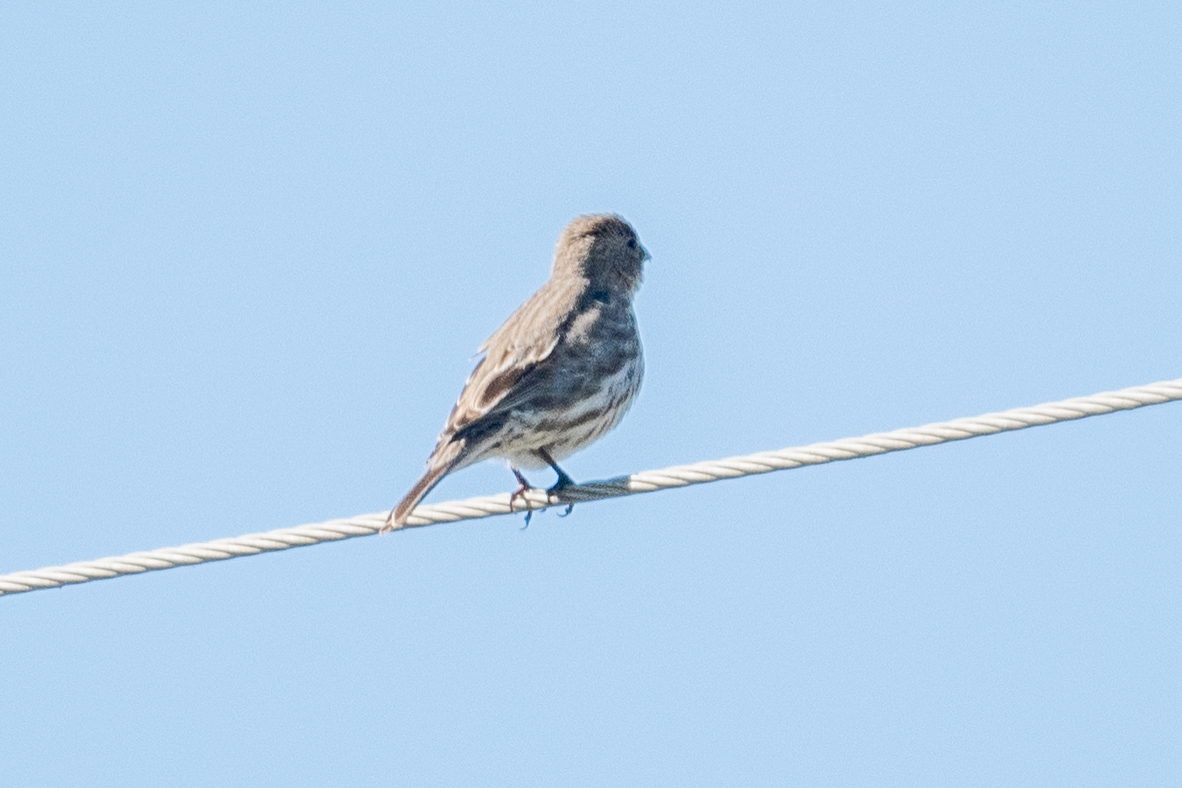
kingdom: Animalia
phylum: Chordata
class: Aves
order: Passeriformes
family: Fringillidae
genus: Haemorhous
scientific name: Haemorhous mexicanus
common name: House finch
